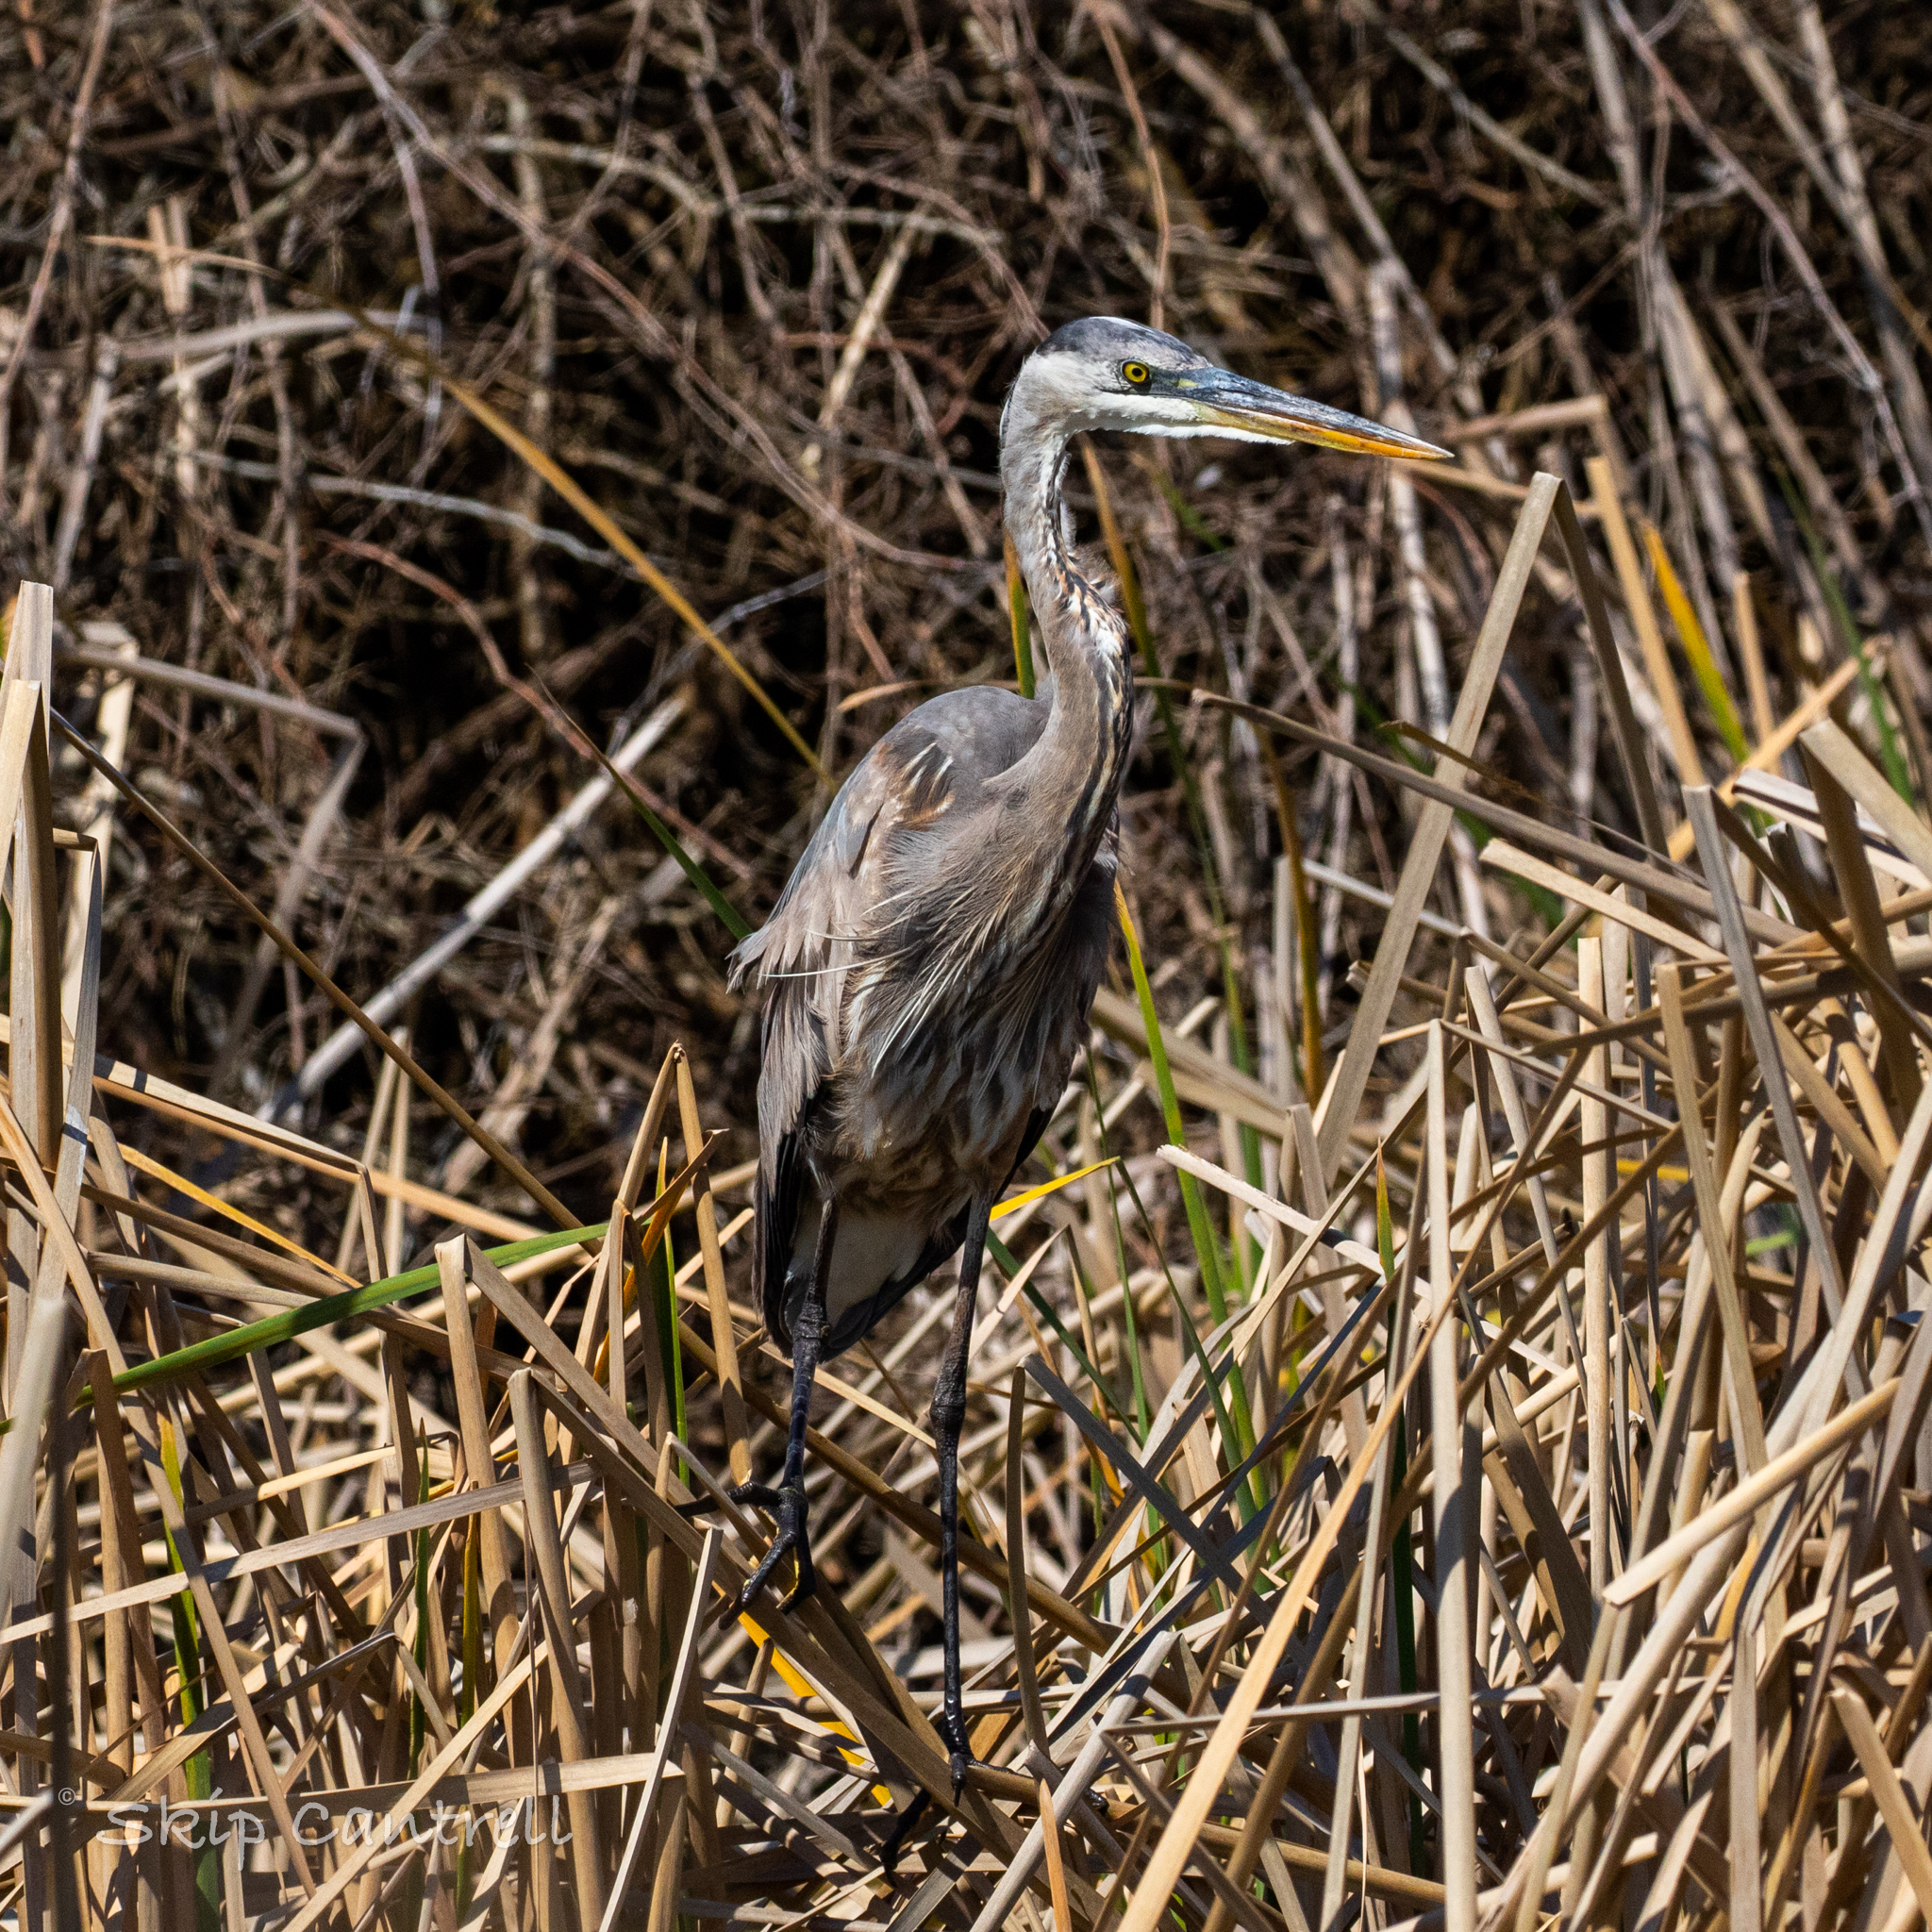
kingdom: Animalia
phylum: Chordata
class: Aves
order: Pelecaniformes
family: Ardeidae
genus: Ardea
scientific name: Ardea herodias
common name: Great blue heron
